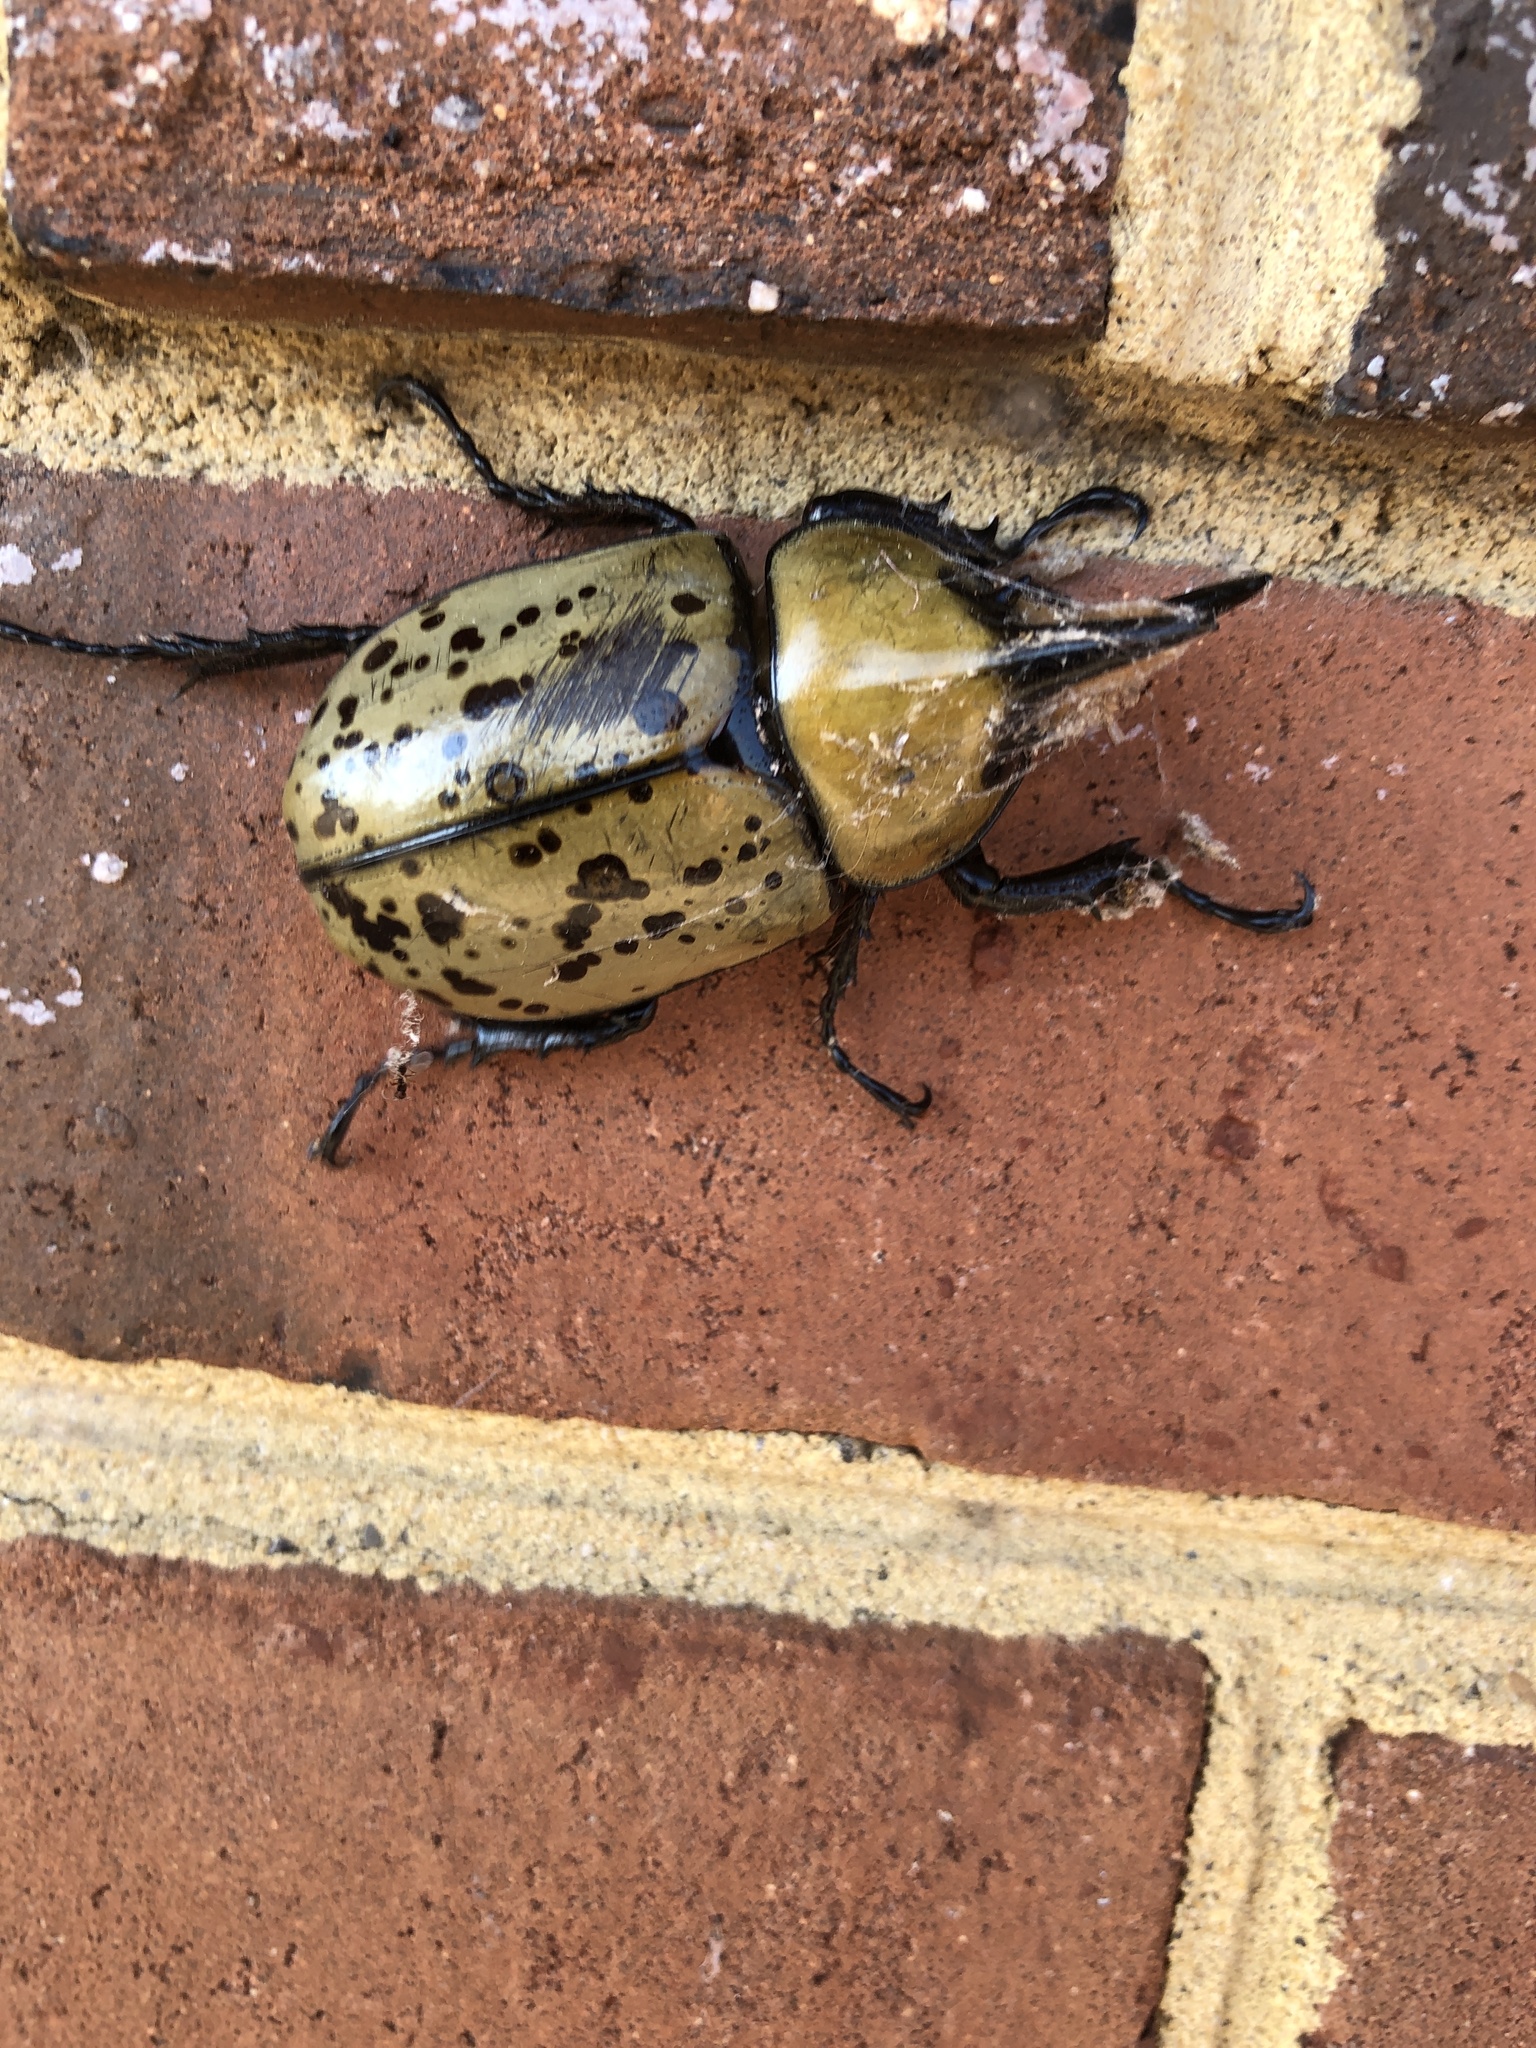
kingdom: Animalia
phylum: Arthropoda
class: Insecta
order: Coleoptera
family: Scarabaeidae
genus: Dynastes
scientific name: Dynastes tityus
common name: Eastern hercules beetle
